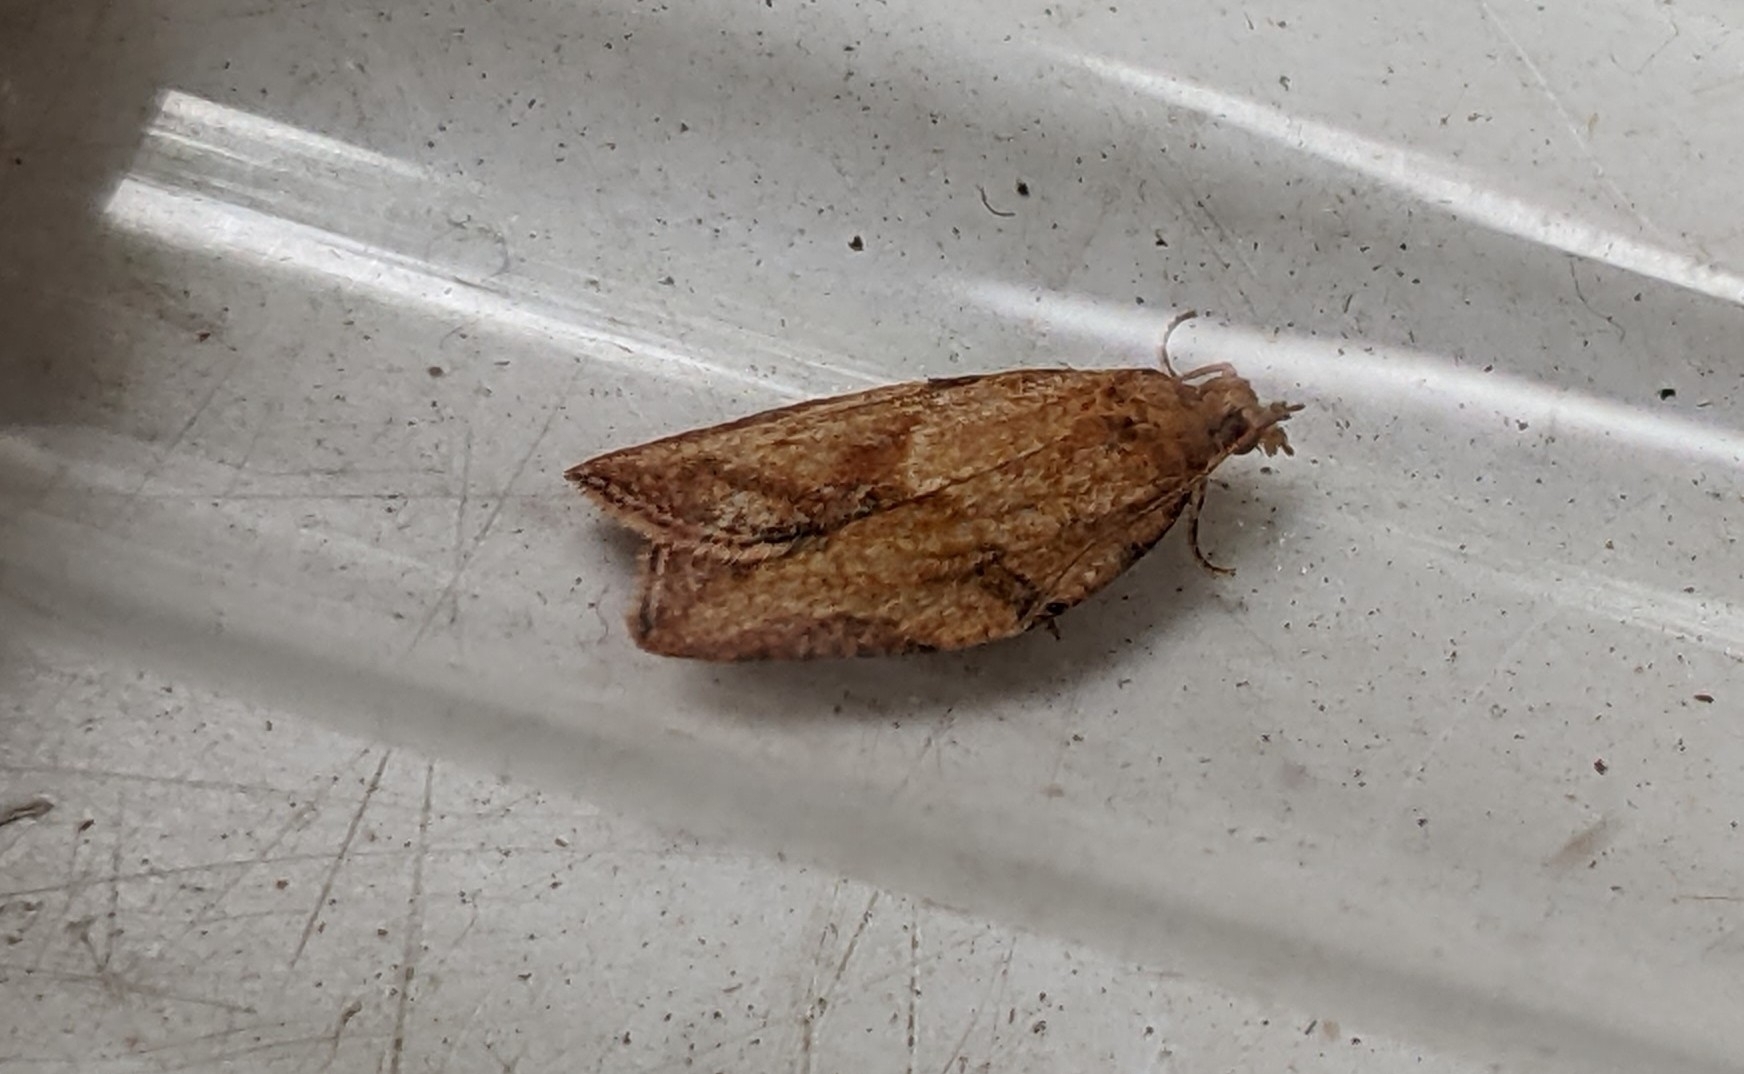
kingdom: Animalia
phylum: Arthropoda
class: Insecta
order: Lepidoptera
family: Tortricidae
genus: Epiphyas
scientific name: Epiphyas postvittana
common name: Light brown apple moth
